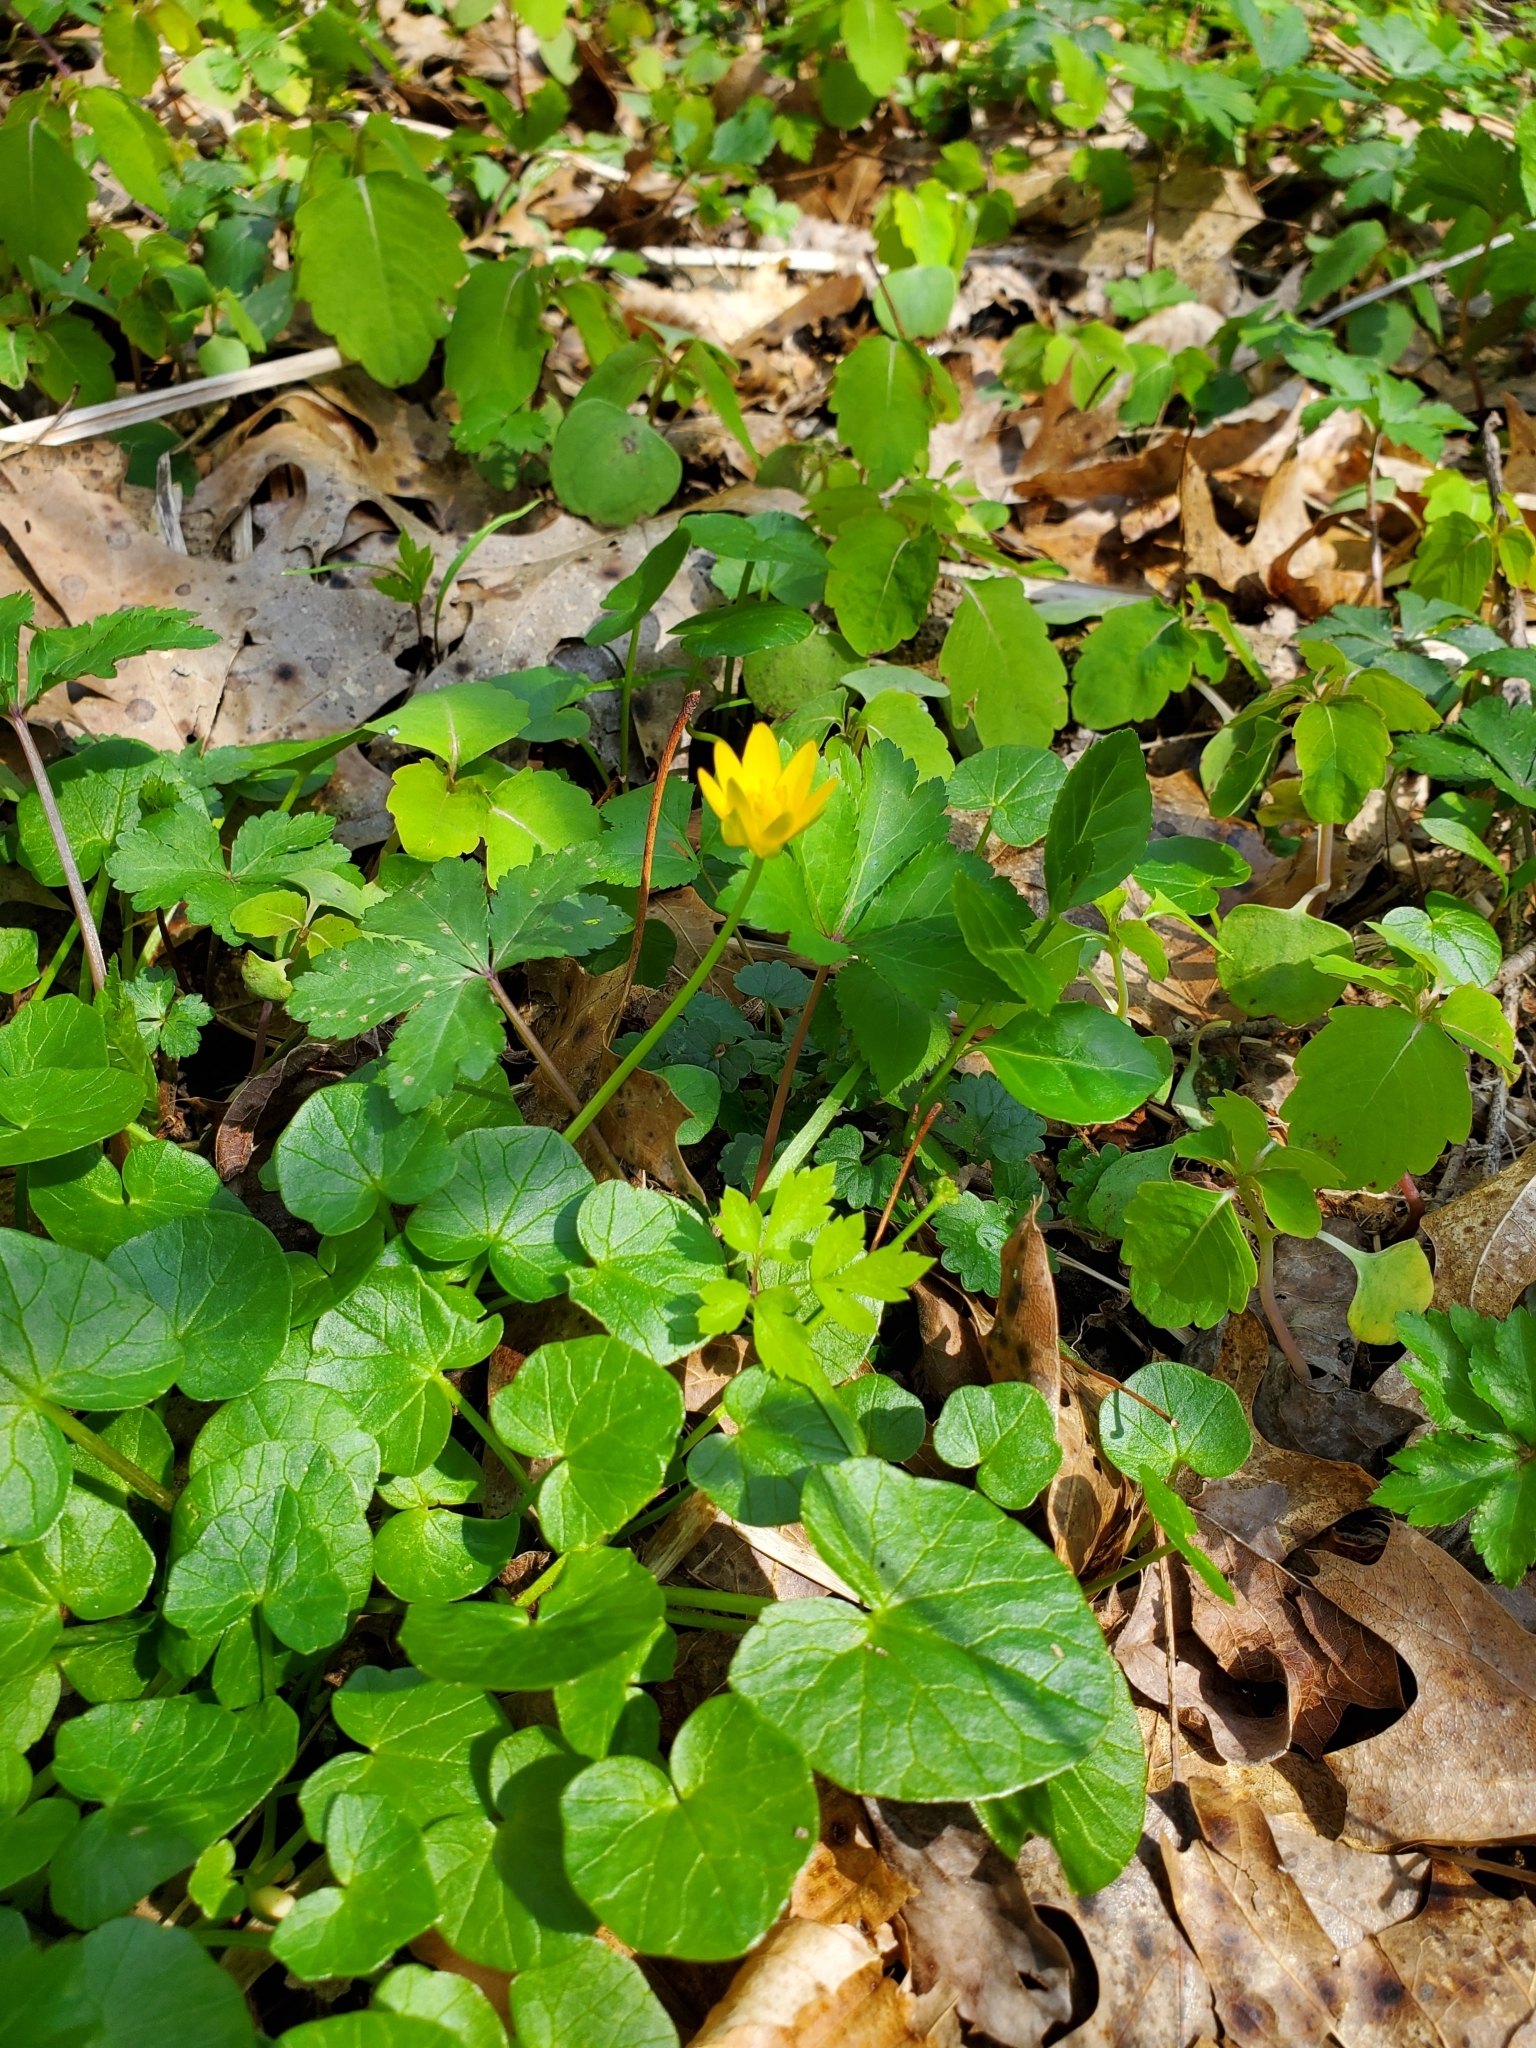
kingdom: Plantae
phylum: Tracheophyta
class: Magnoliopsida
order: Ranunculales
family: Ranunculaceae
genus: Ficaria
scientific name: Ficaria verna
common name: Lesser celandine
